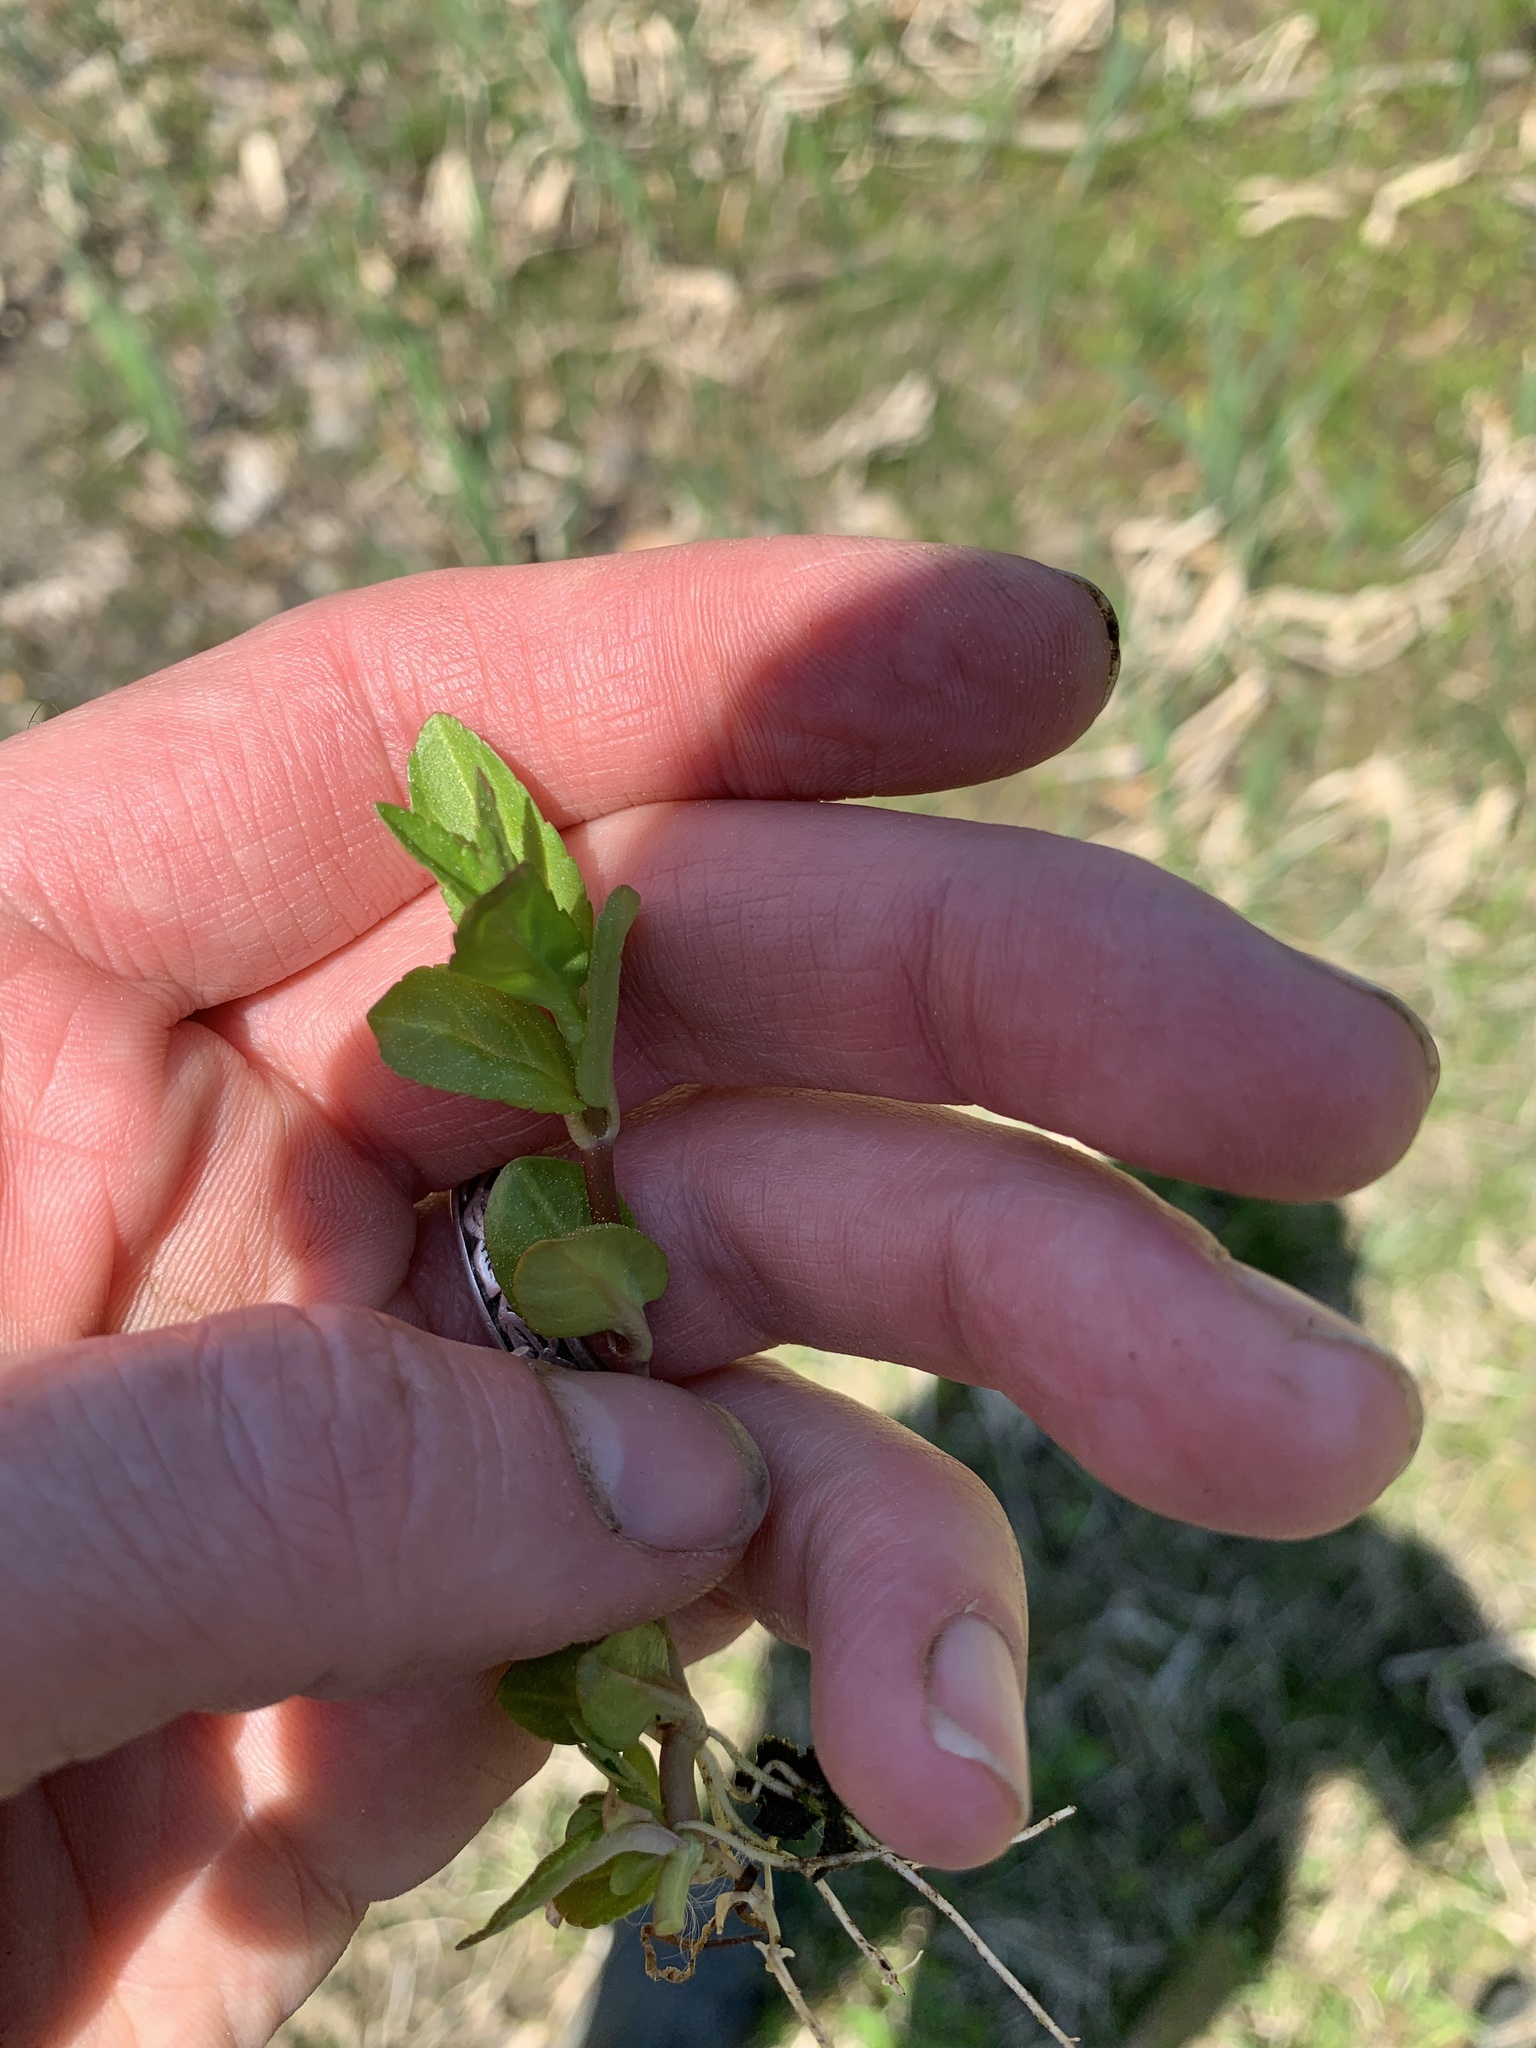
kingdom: Plantae
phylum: Tracheophyta
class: Magnoliopsida
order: Lamiales
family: Lamiaceae
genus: Lycopus
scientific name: Lycopus uniflorus
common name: Northern bugleweed
